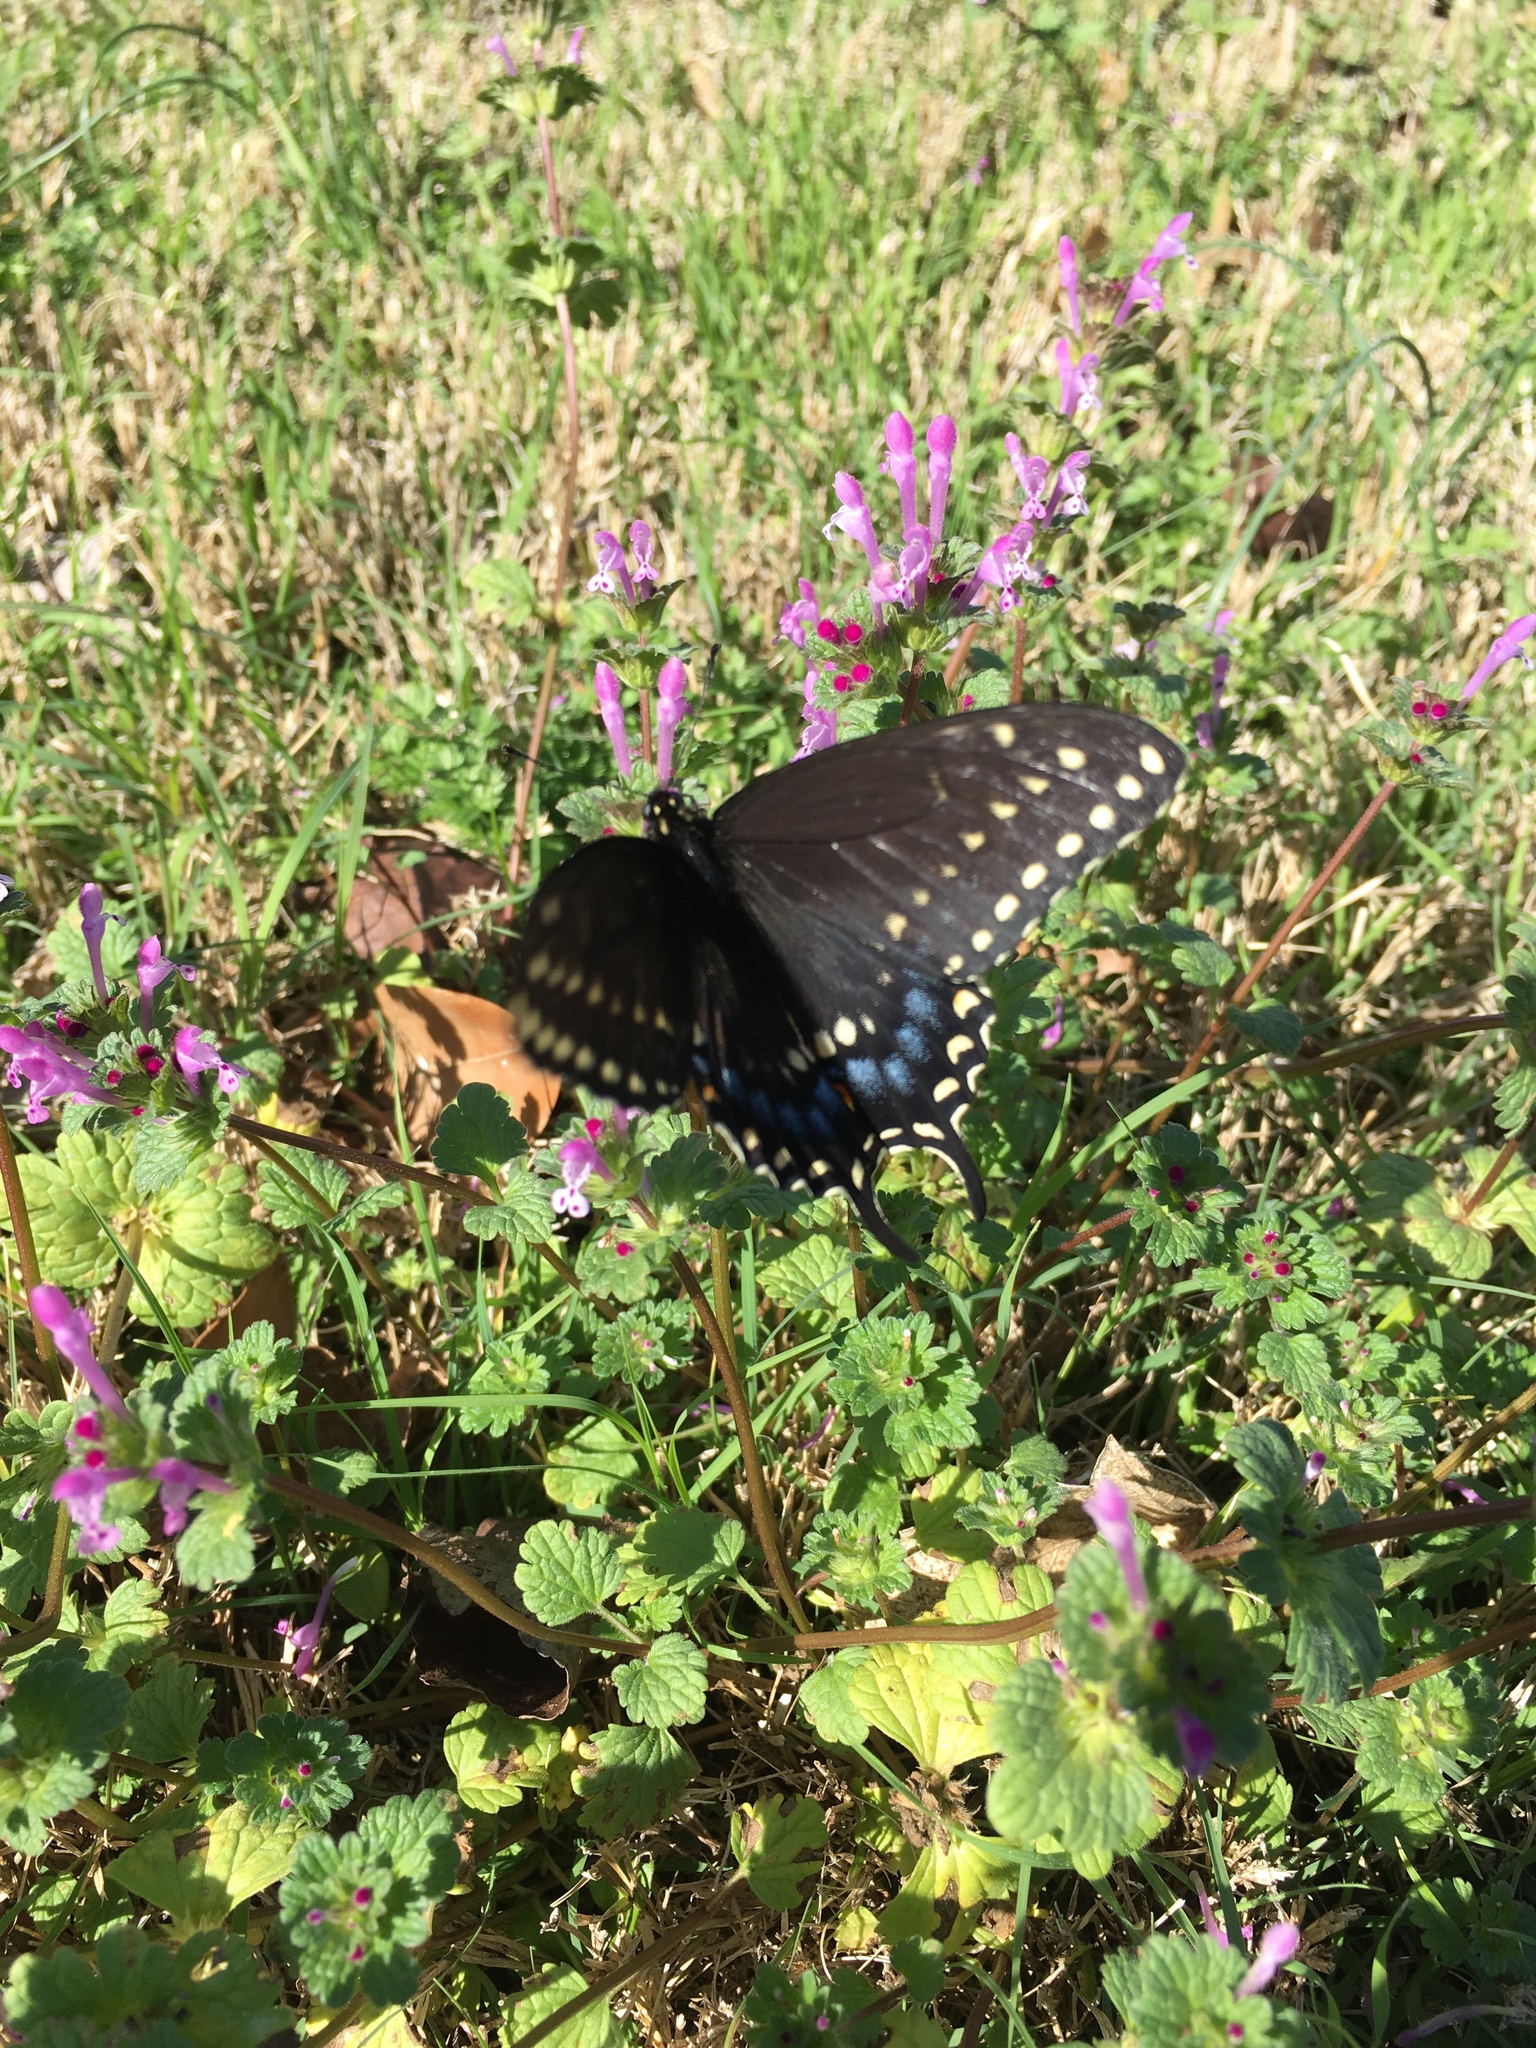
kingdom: Animalia
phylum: Arthropoda
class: Insecta
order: Lepidoptera
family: Papilionidae
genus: Papilio
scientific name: Papilio polyxenes
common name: Black swallowtail
